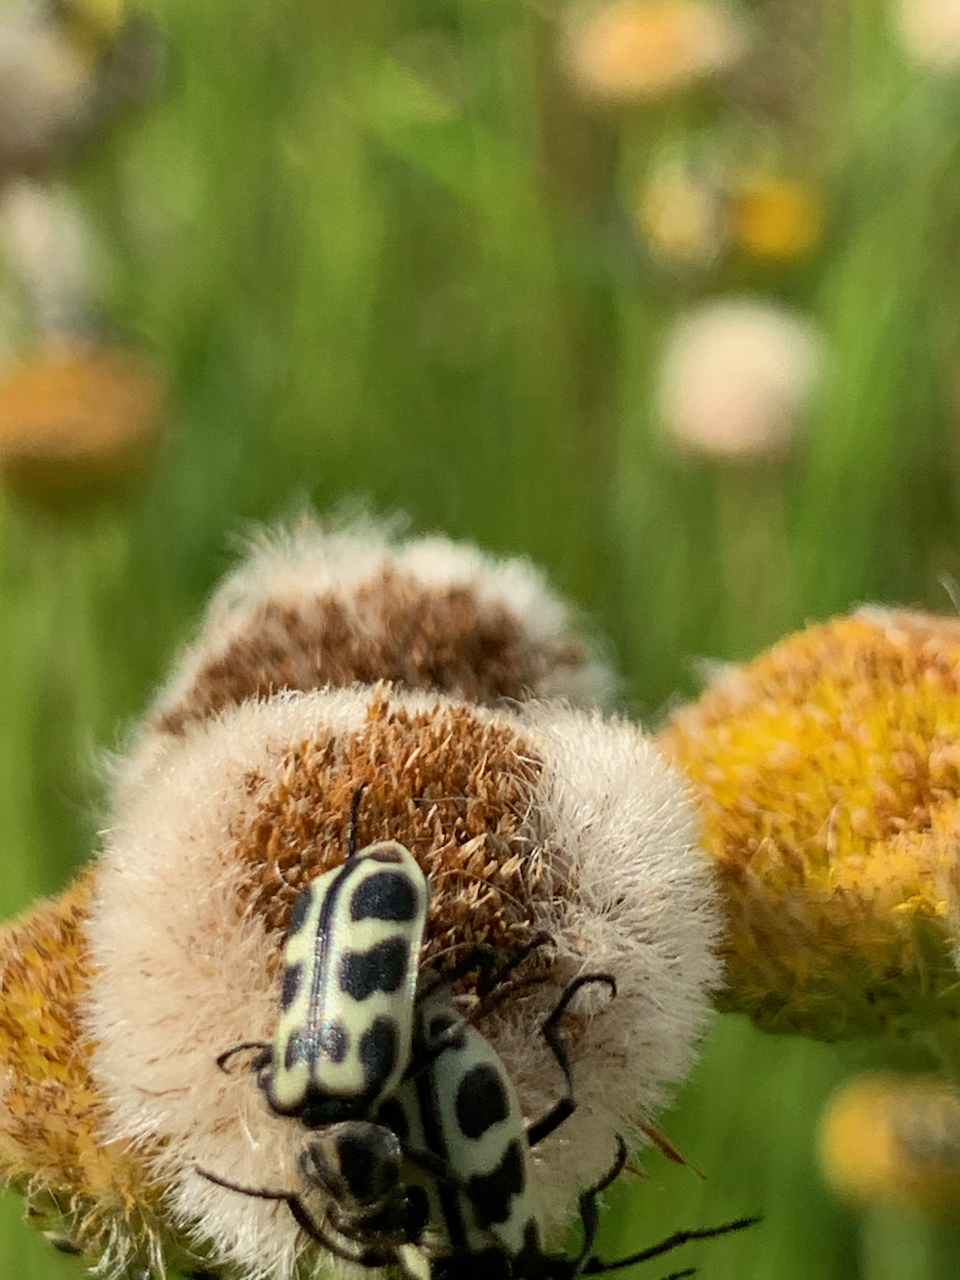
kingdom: Animalia
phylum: Arthropoda
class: Insecta
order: Coleoptera
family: Melyridae
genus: Astylus
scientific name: Astylus atromaculatus
